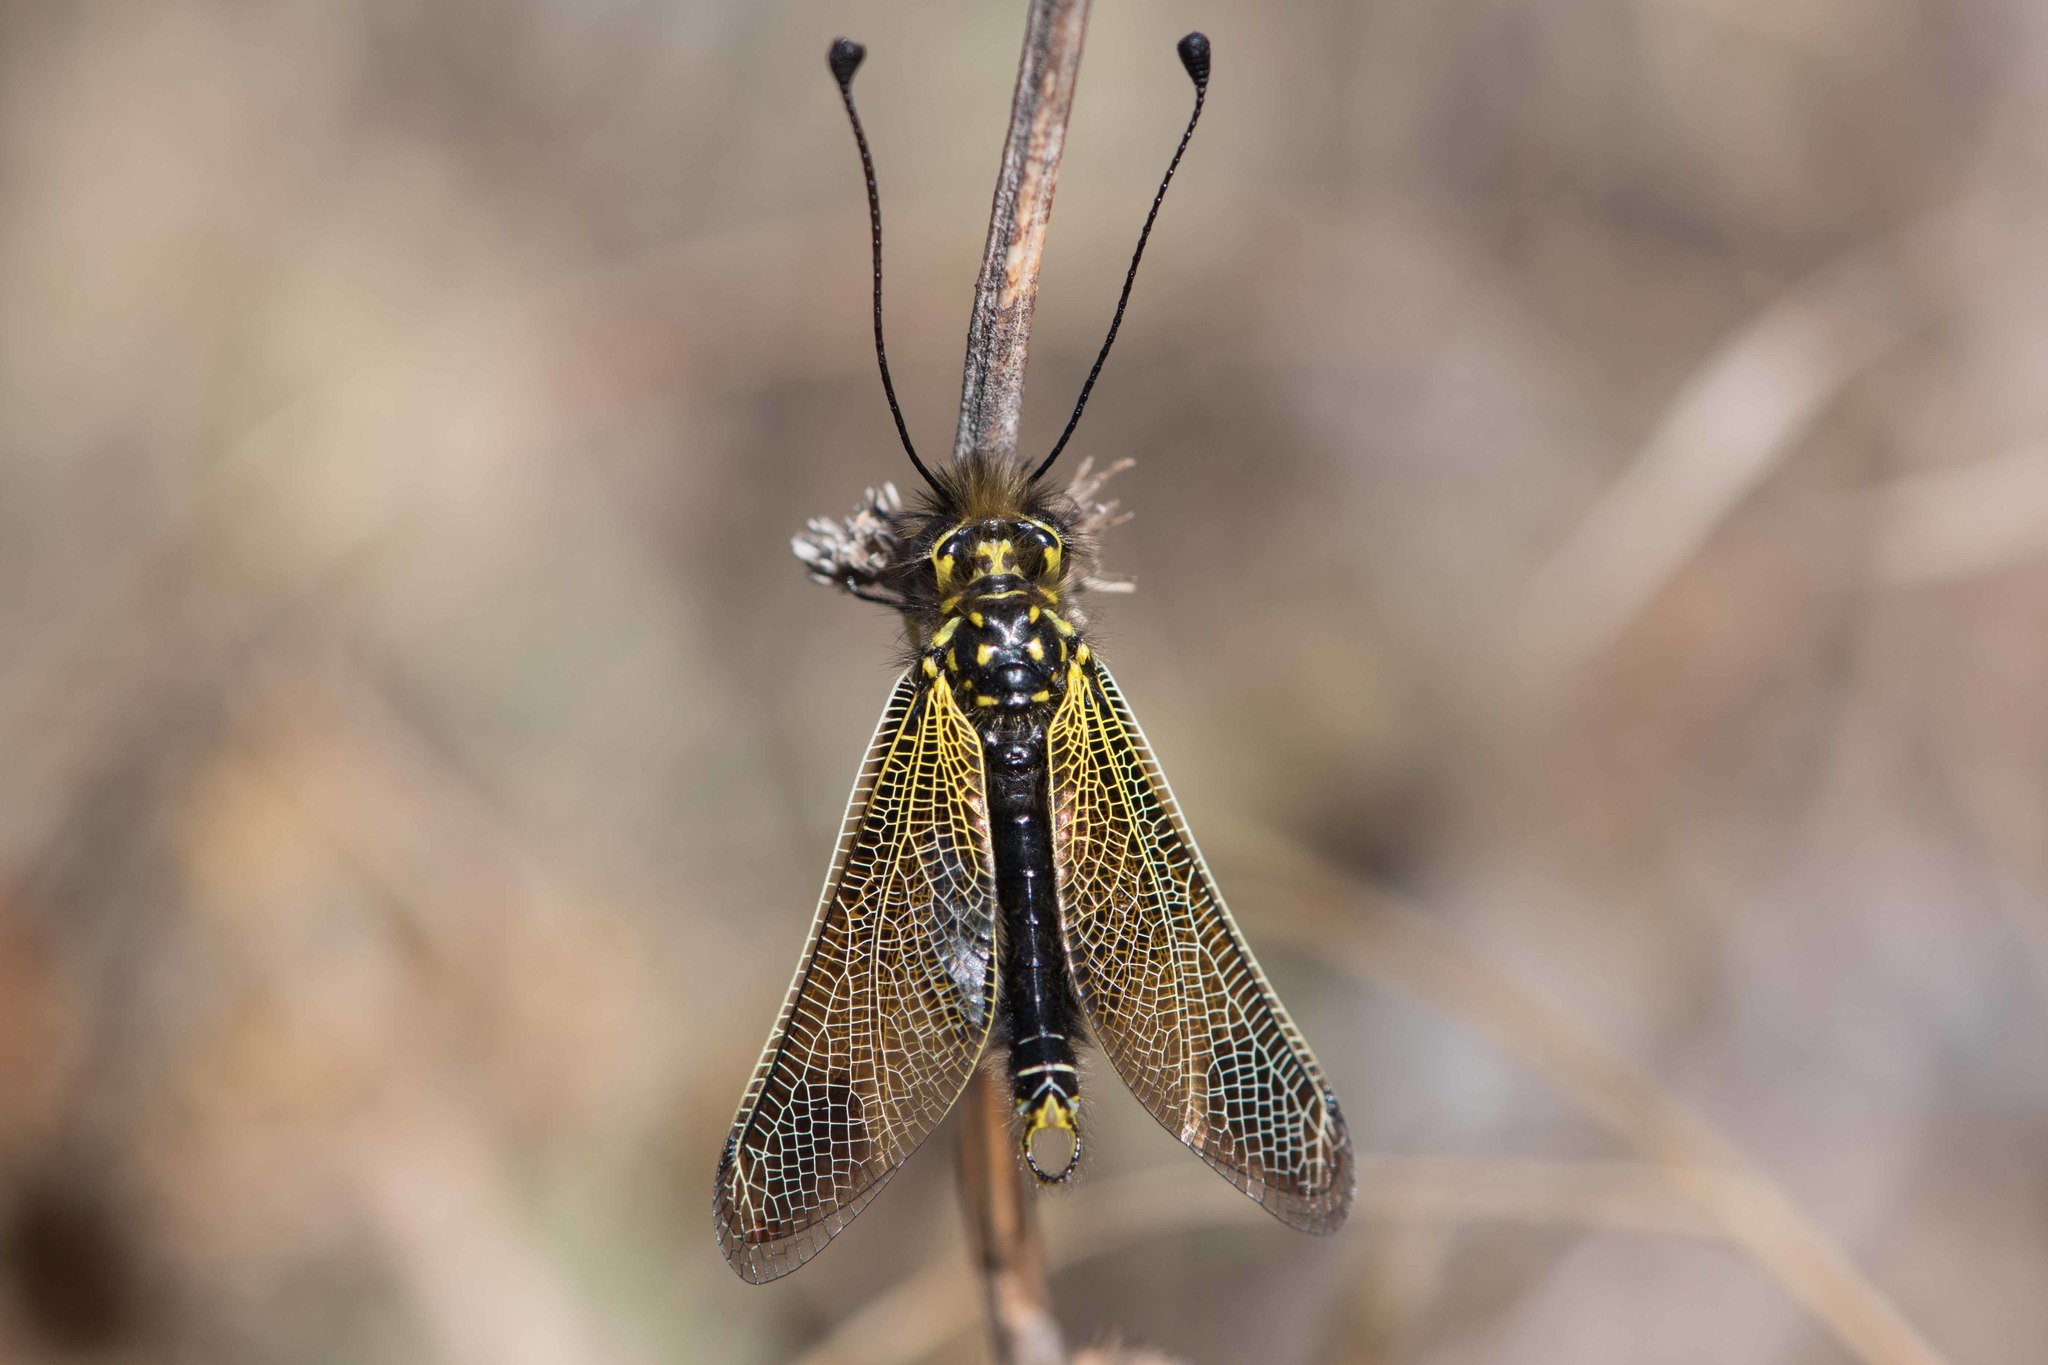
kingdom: Animalia
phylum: Arthropoda
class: Insecta
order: Neuroptera
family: Ascalaphidae
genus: Libelloides
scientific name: Libelloides ictericus
